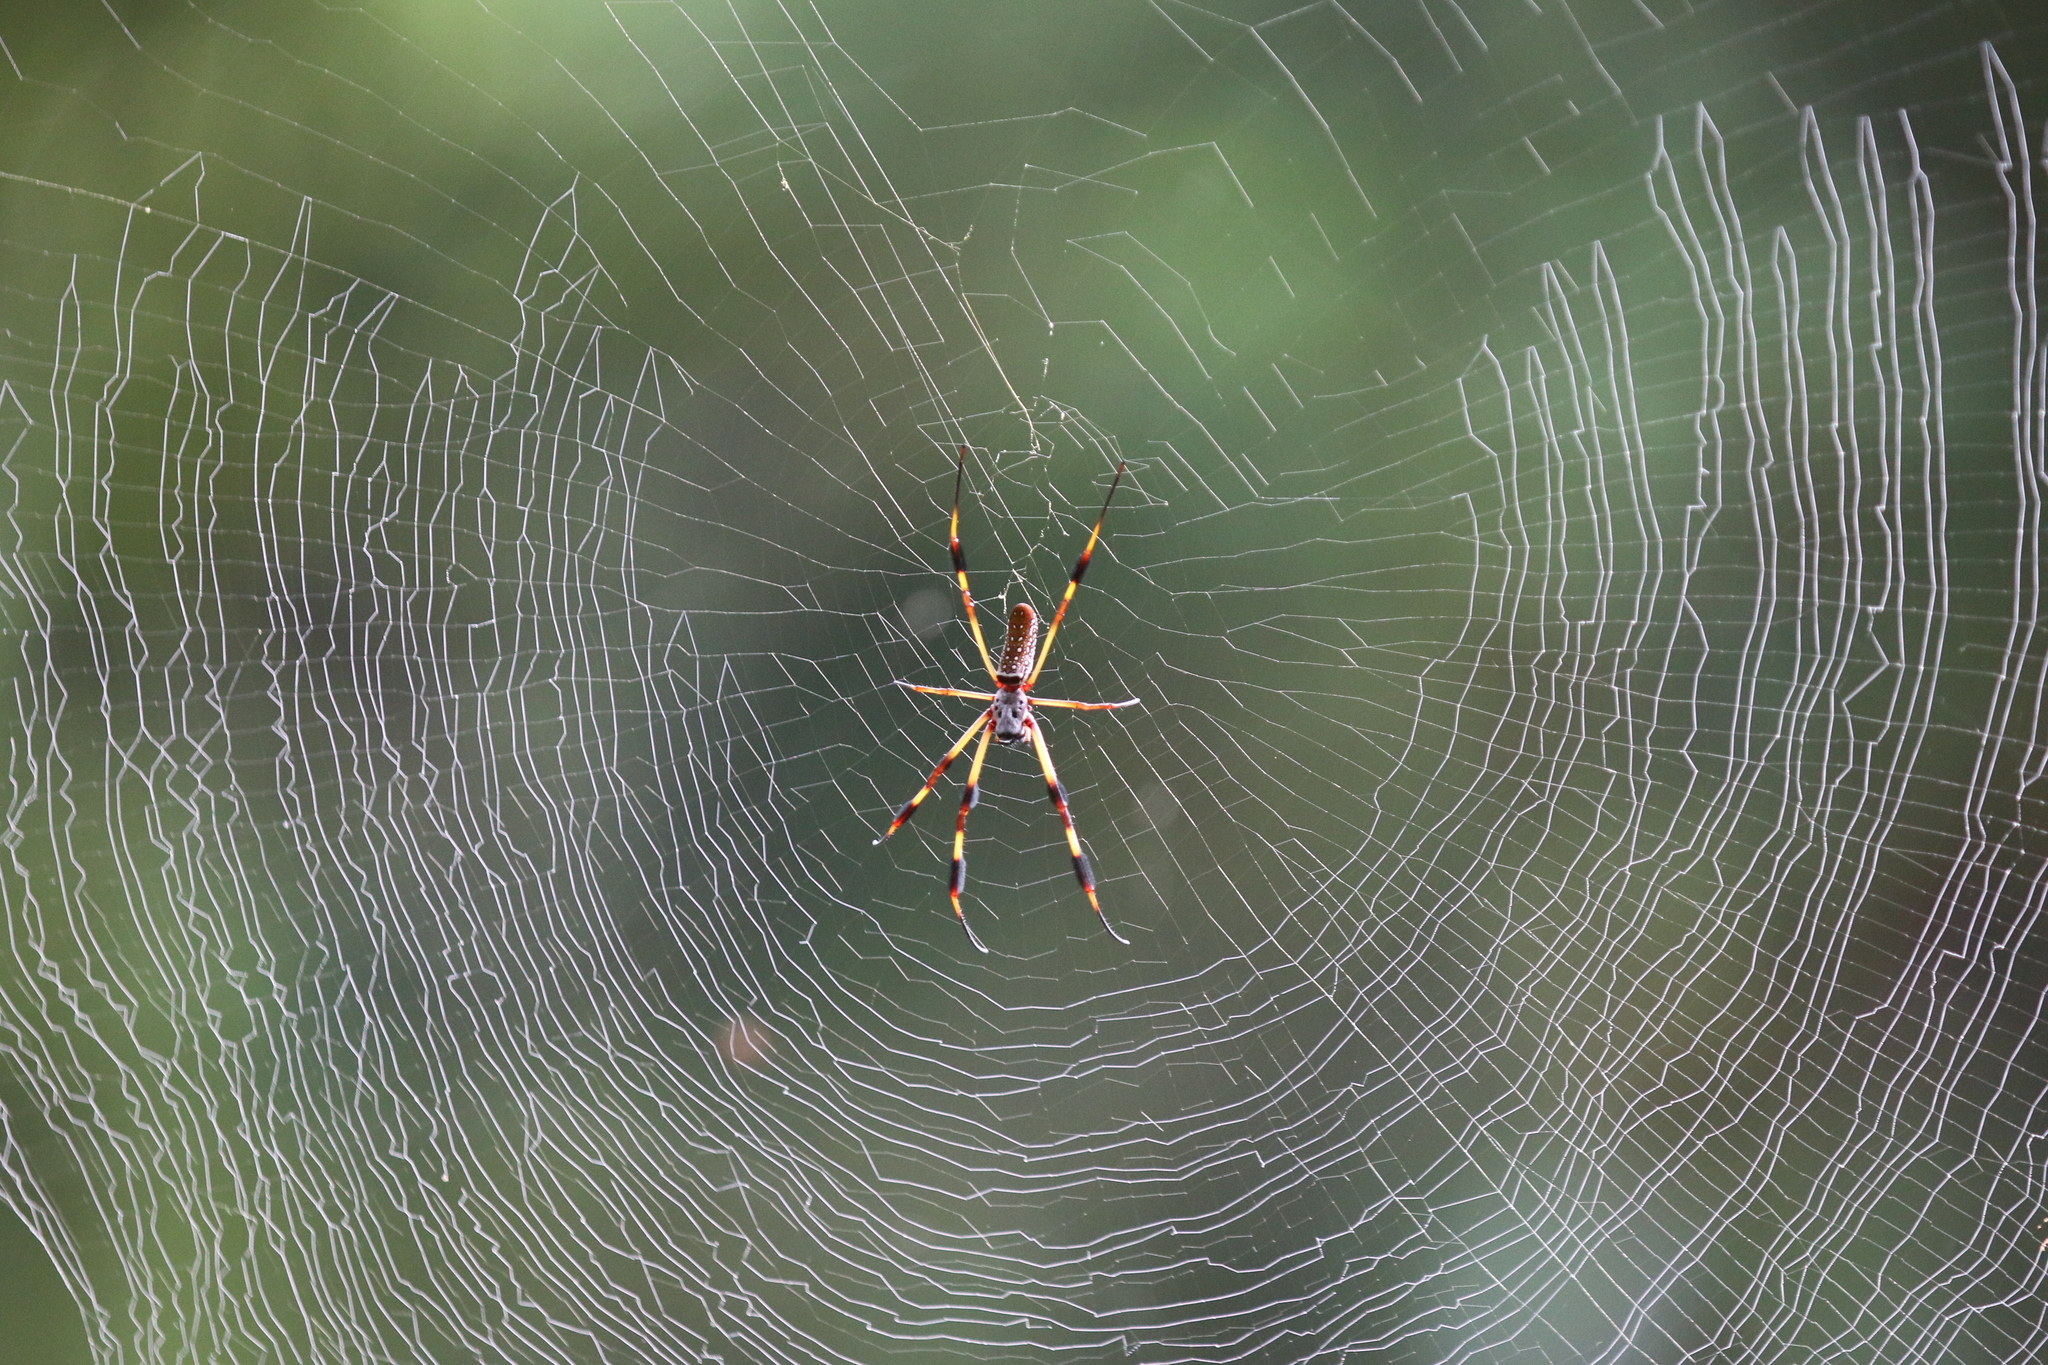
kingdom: Animalia
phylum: Arthropoda
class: Arachnida
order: Araneae
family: Araneidae
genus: Trichonephila
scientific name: Trichonephila clavipes
